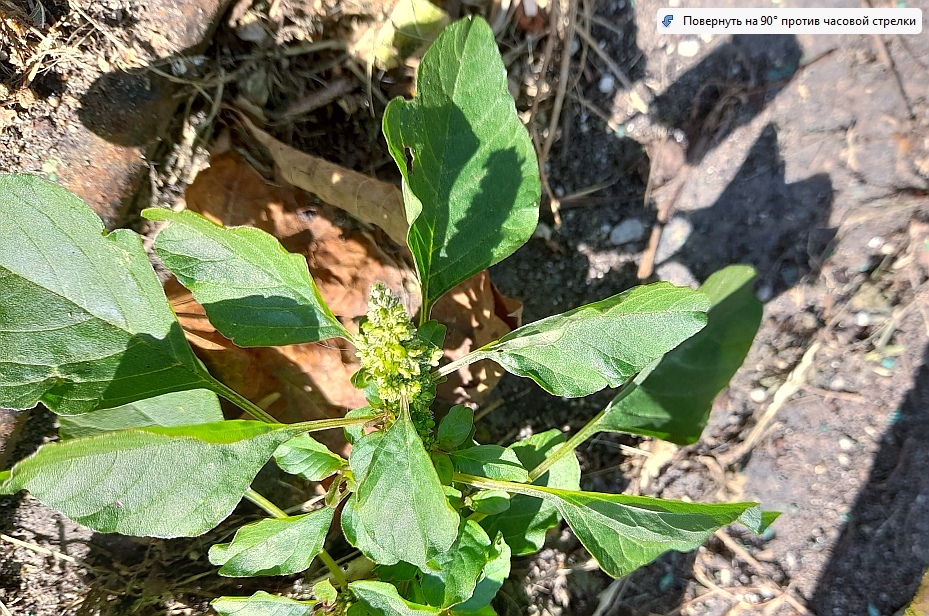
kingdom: Plantae
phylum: Tracheophyta
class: Magnoliopsida
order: Caryophyllales
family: Amaranthaceae
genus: Amaranthus
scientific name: Amaranthus retroflexus
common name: Redroot amaranth
